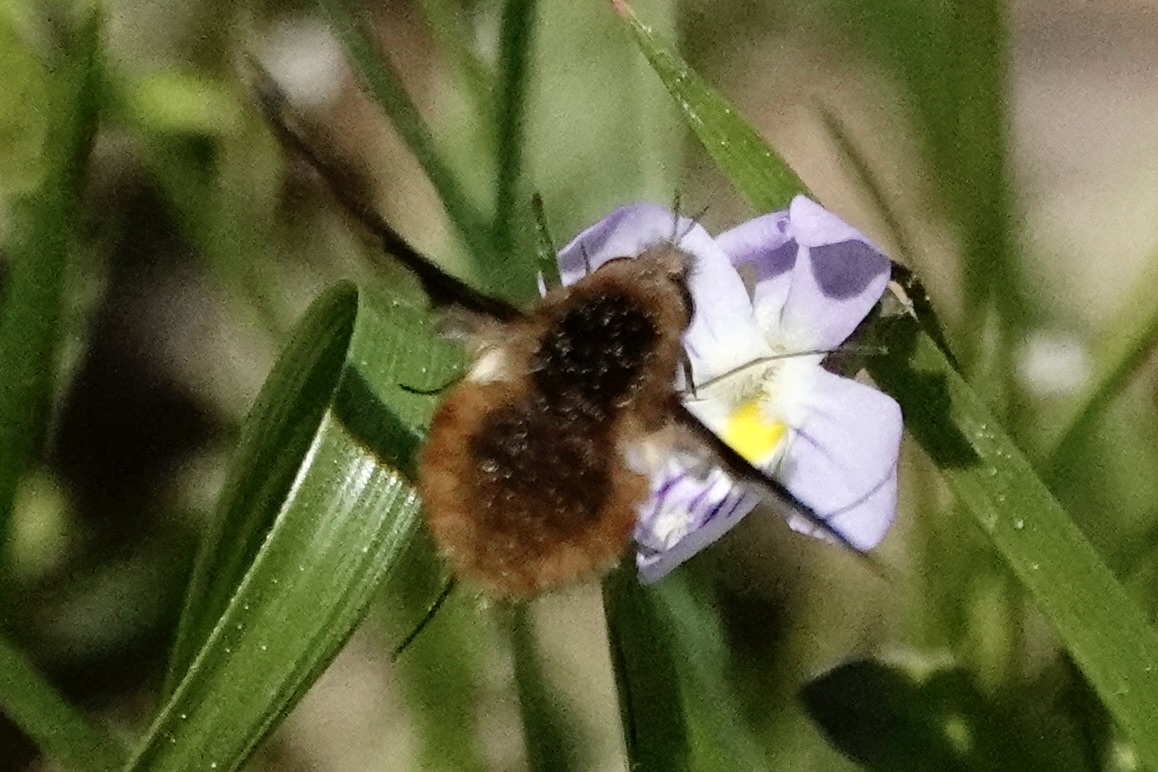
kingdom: Animalia
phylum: Arthropoda
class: Insecta
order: Diptera
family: Bombyliidae
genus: Bombylius
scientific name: Bombylius major
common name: Bee fly
